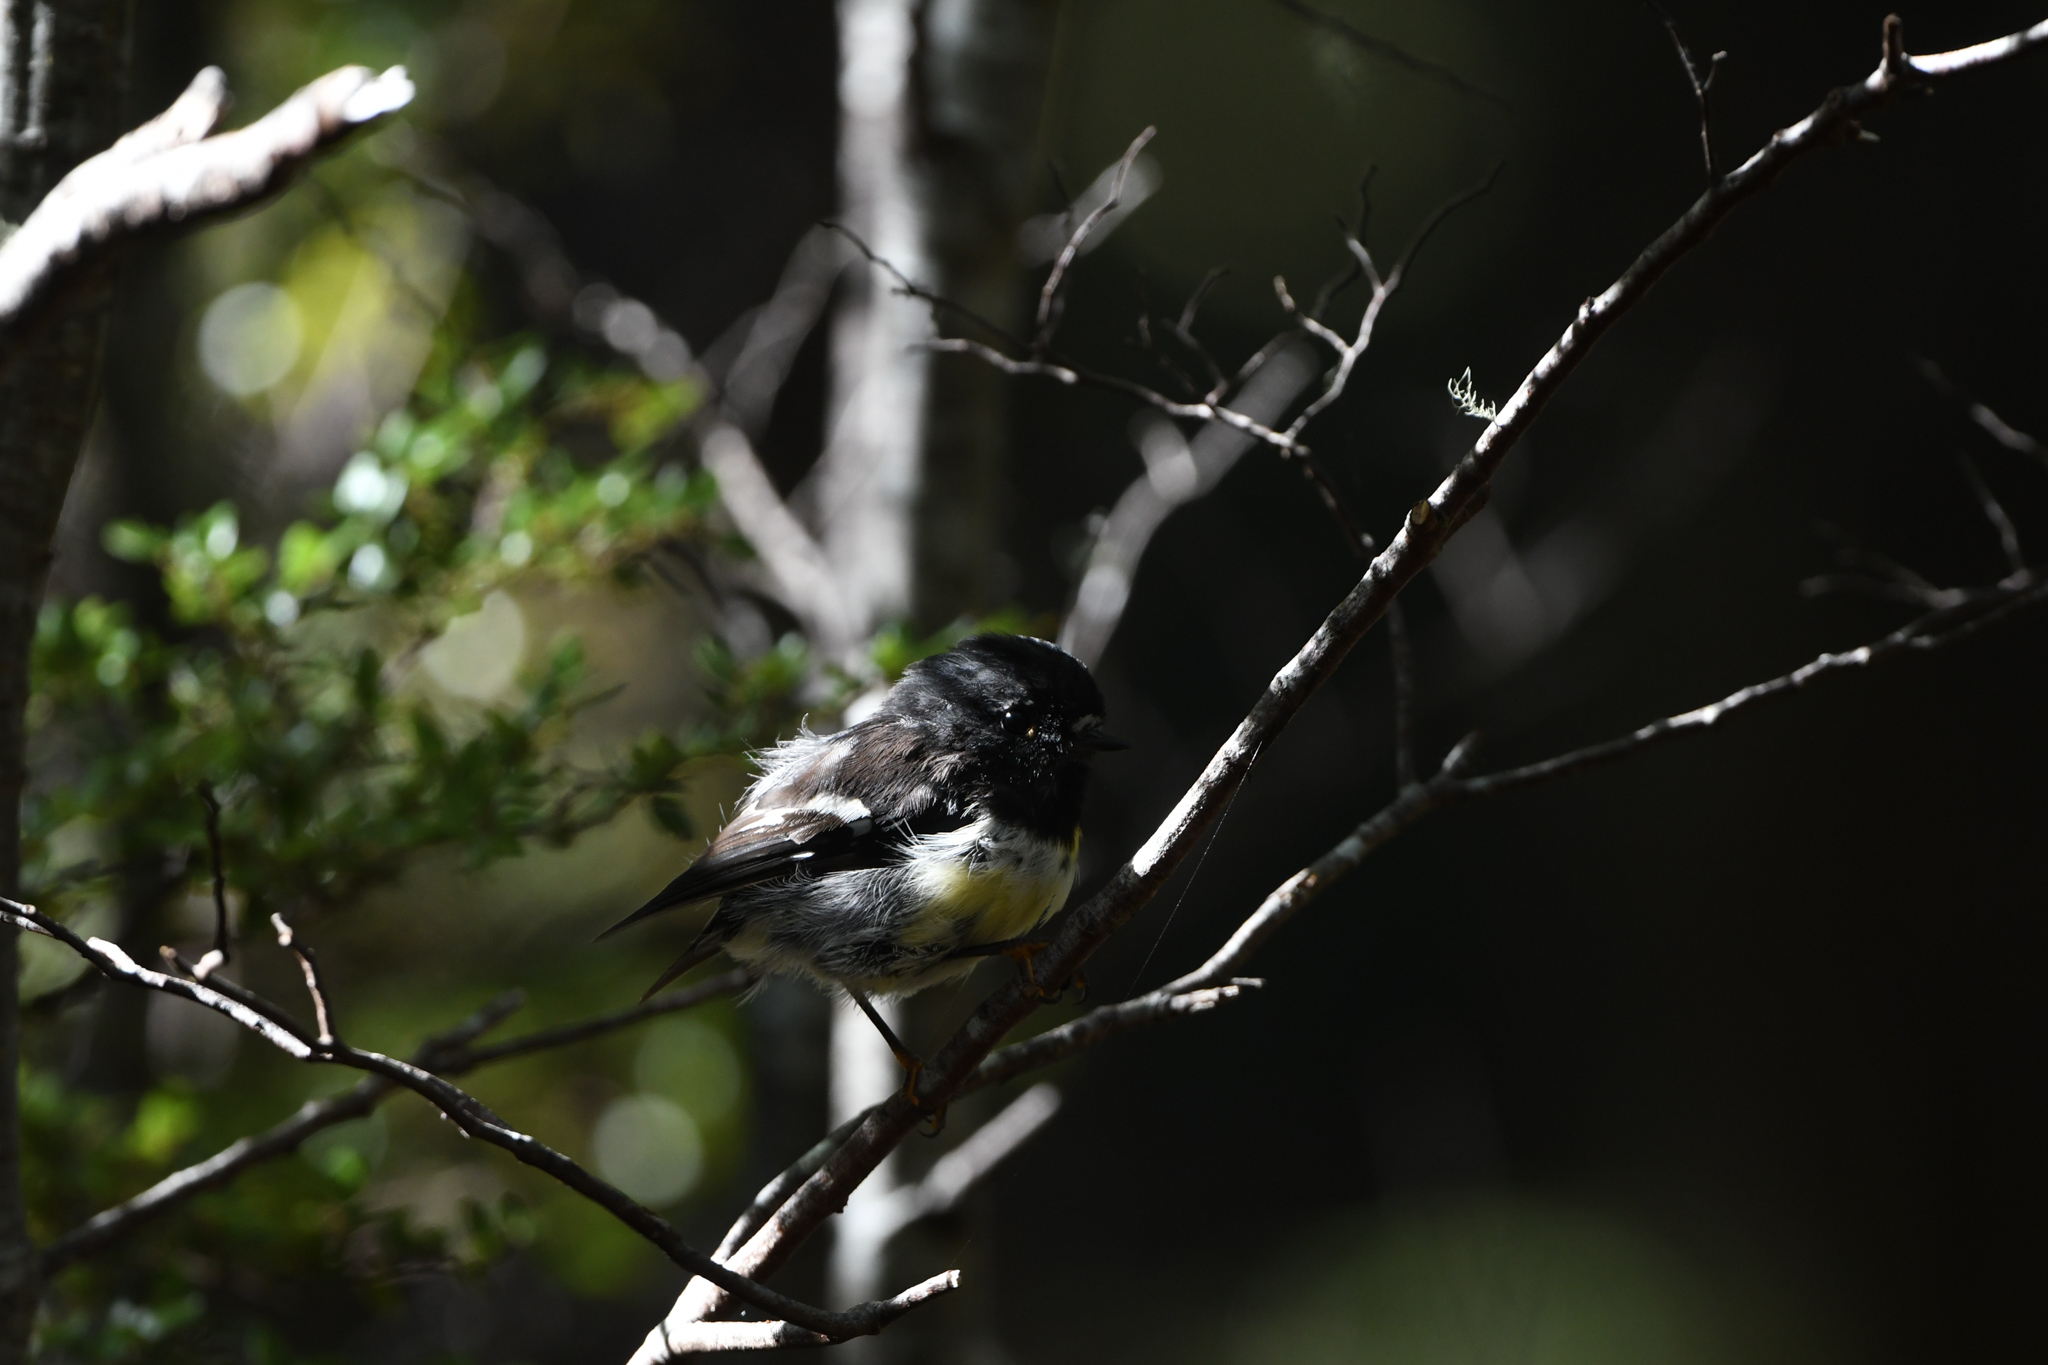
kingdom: Animalia
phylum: Chordata
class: Aves
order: Passeriformes
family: Petroicidae
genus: Petroica
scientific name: Petroica macrocephala
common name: Tomtit
